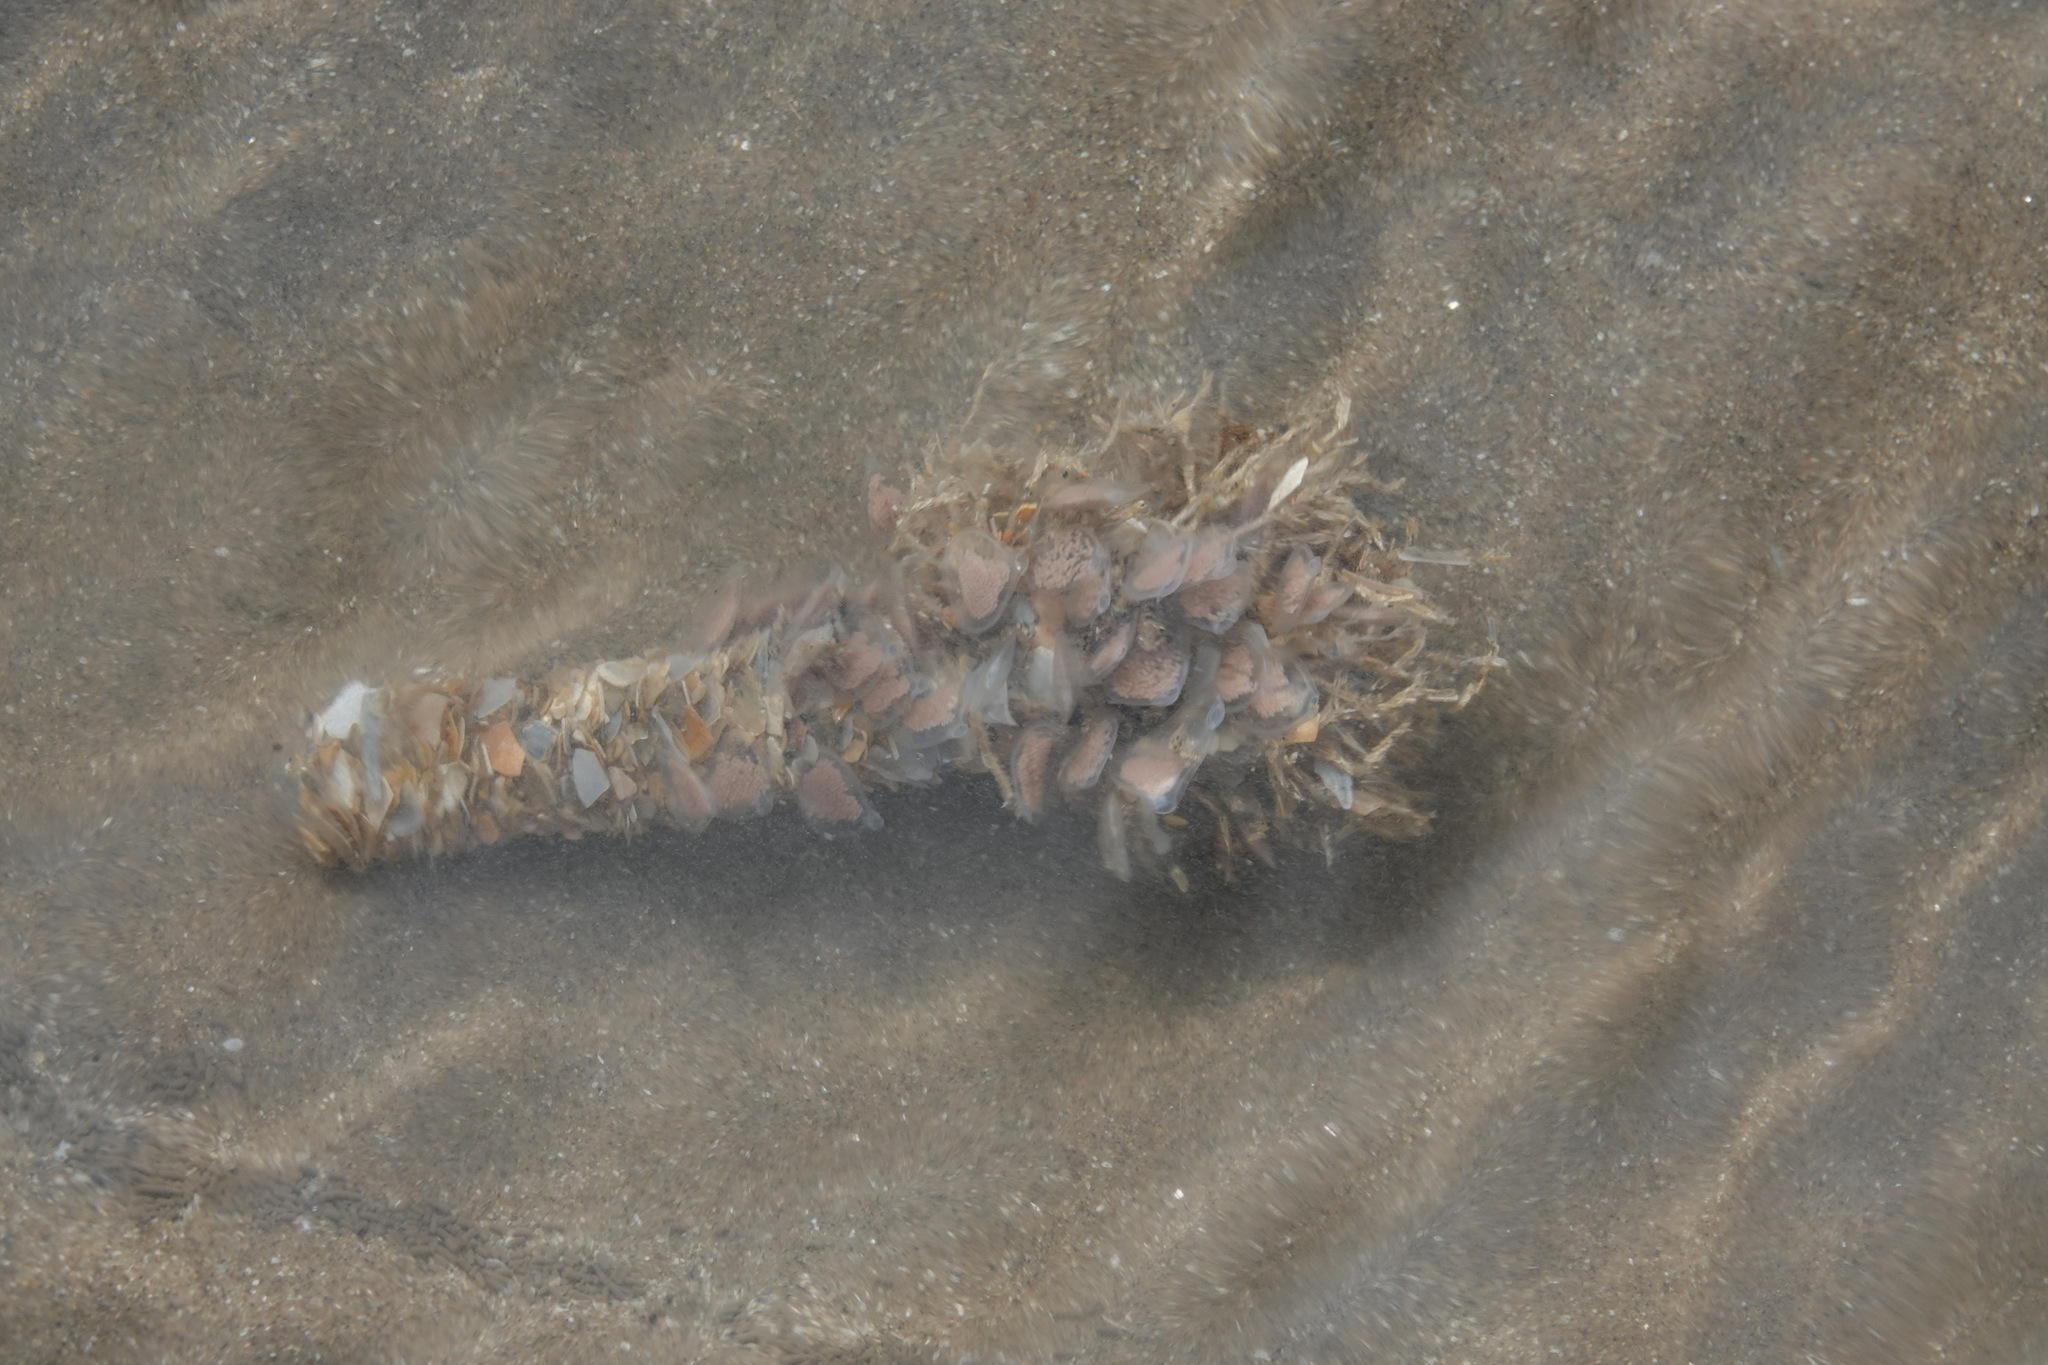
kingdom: Animalia
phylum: Annelida
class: Polychaeta
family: Terebellidae
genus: Lanice
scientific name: Lanice conchilega
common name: Sand mason
